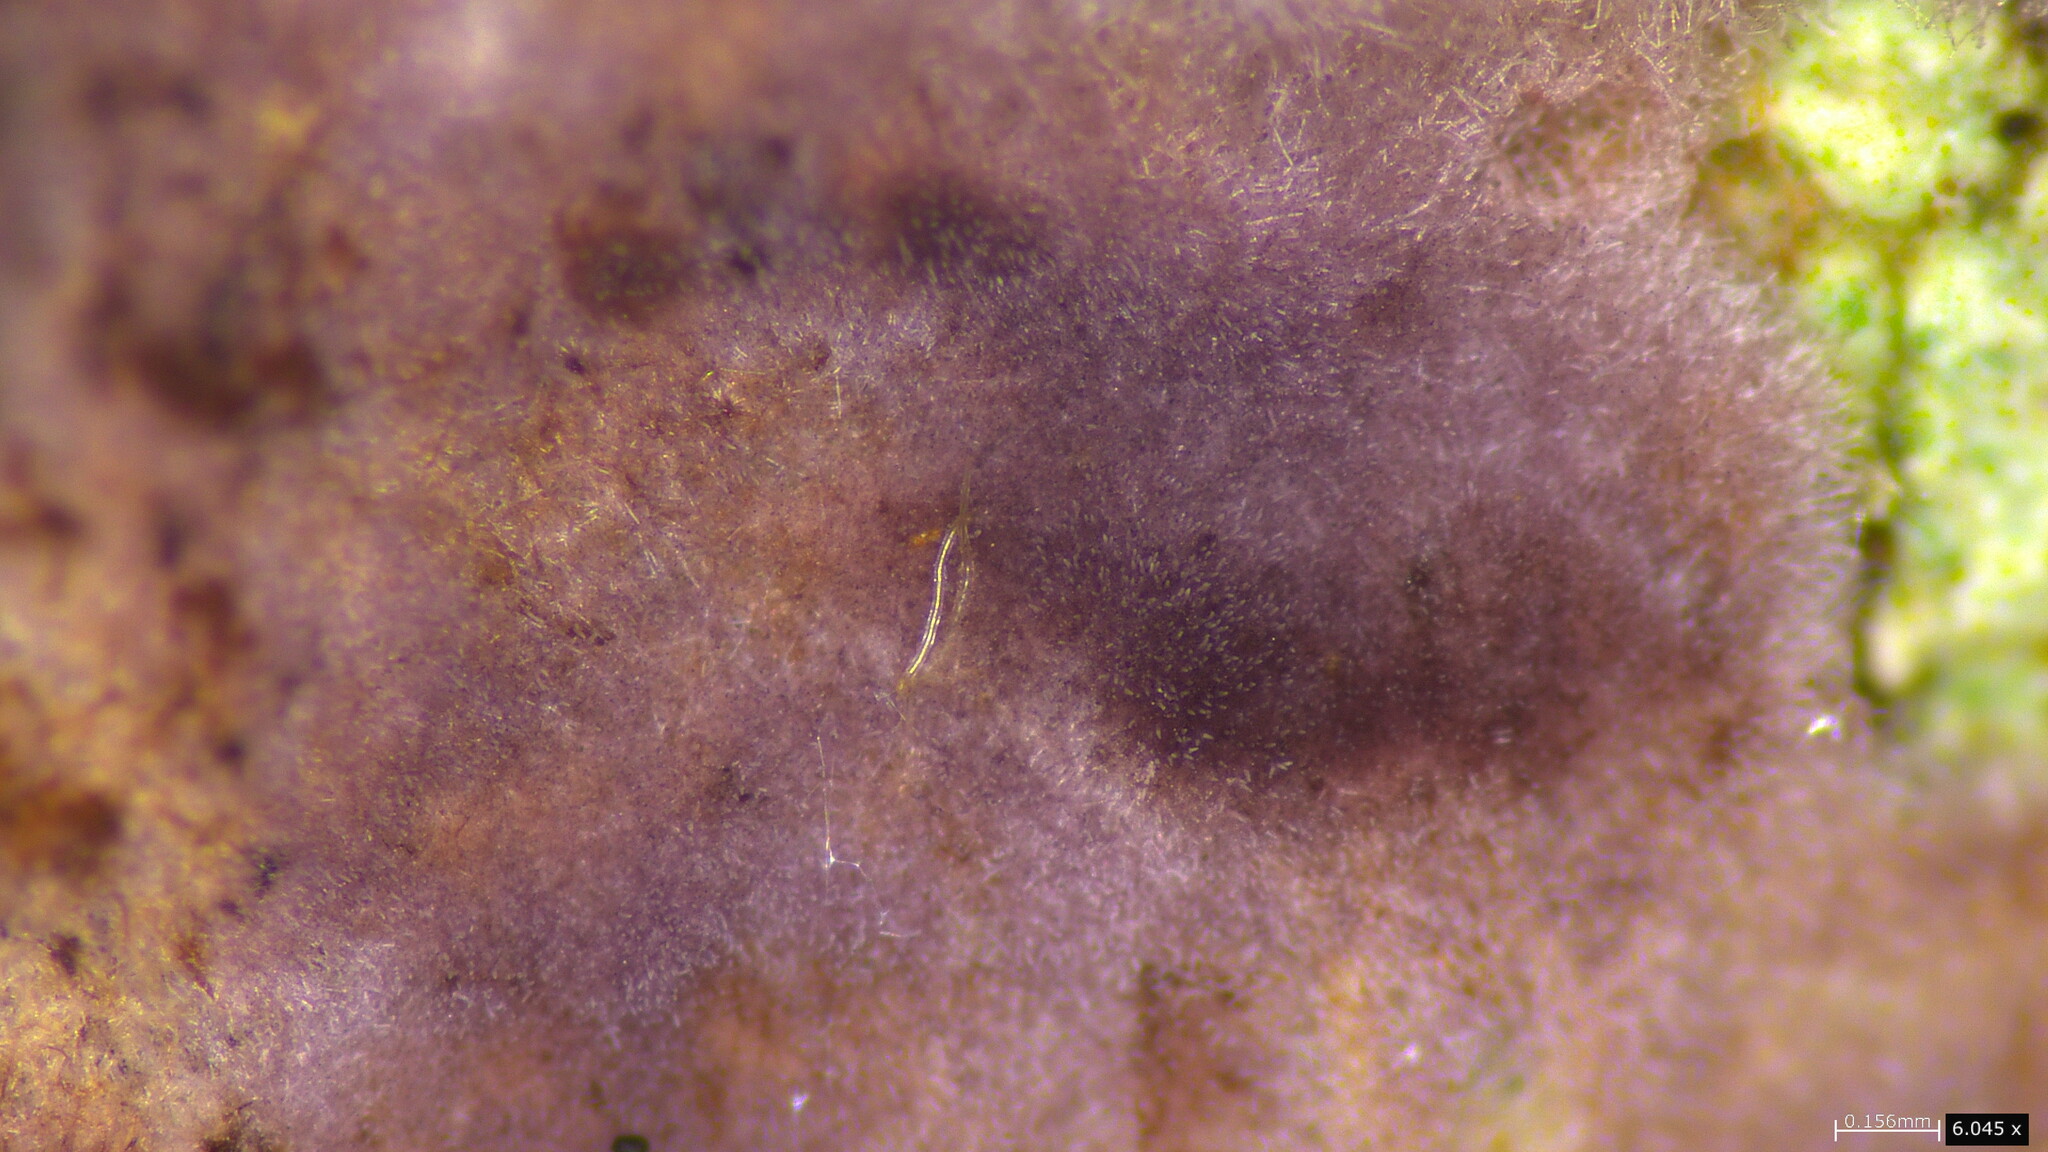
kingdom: Fungi
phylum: Basidiomycota
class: Agaricomycetes
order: Polyporales
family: Phanerochaetaceae
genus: Phlebiopsis
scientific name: Phlebiopsis crassa
